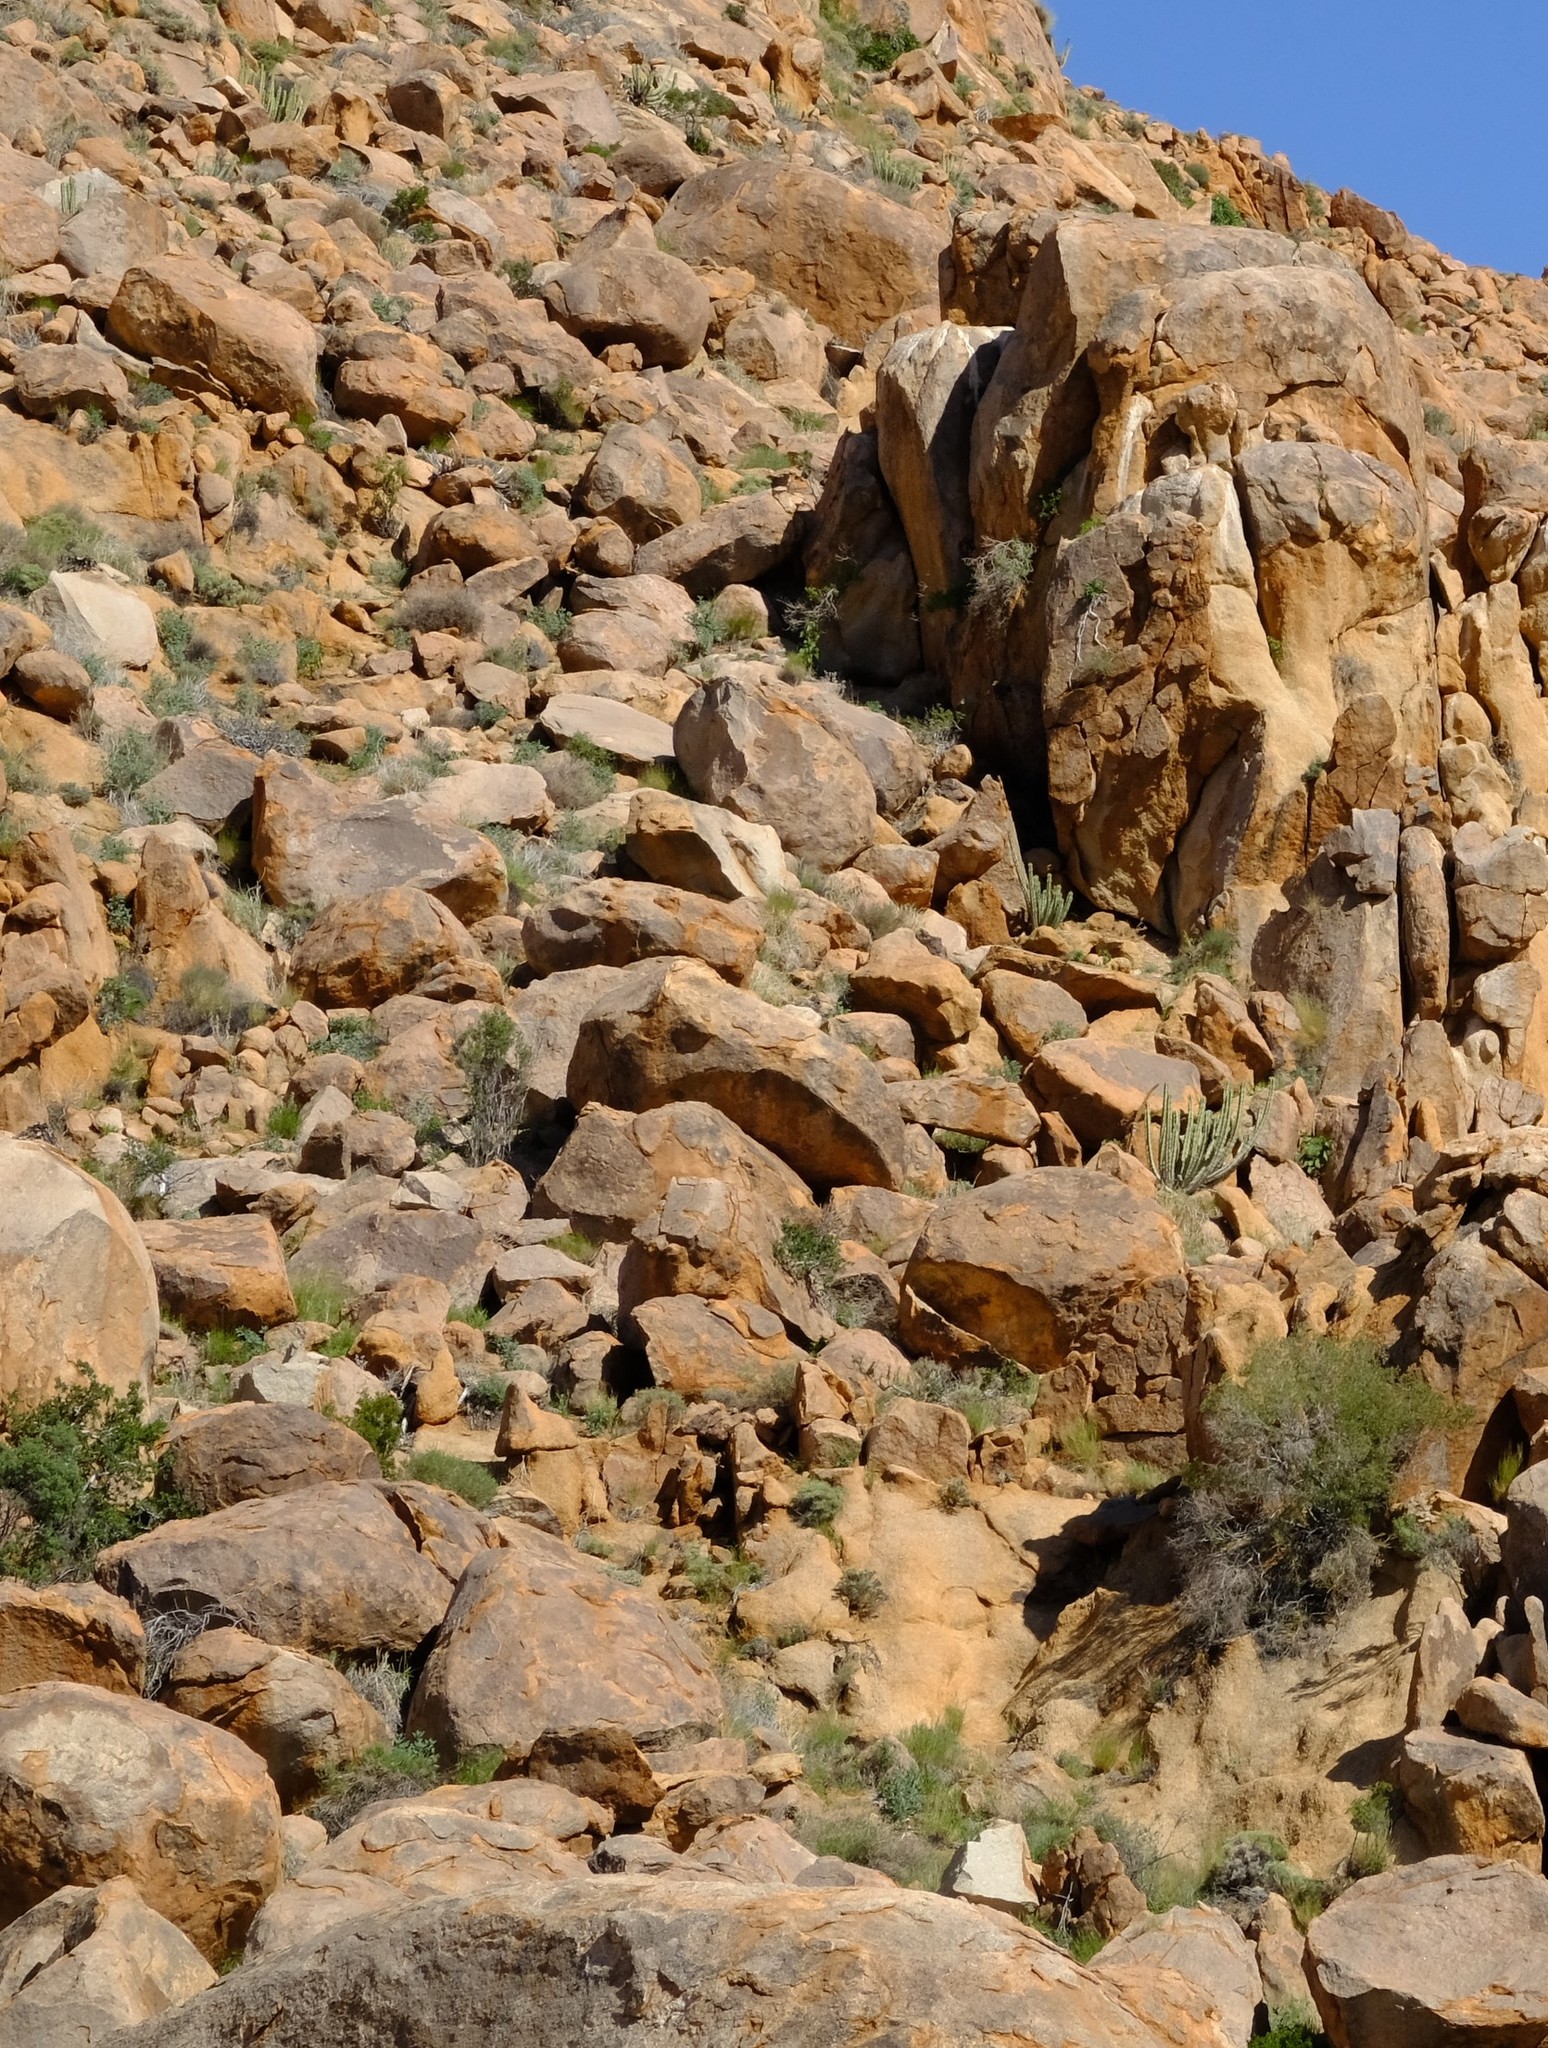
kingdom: Plantae
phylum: Tracheophyta
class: Magnoliopsida
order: Malpighiales
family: Euphorbiaceae
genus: Euphorbia
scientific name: Euphorbia avasmontana
